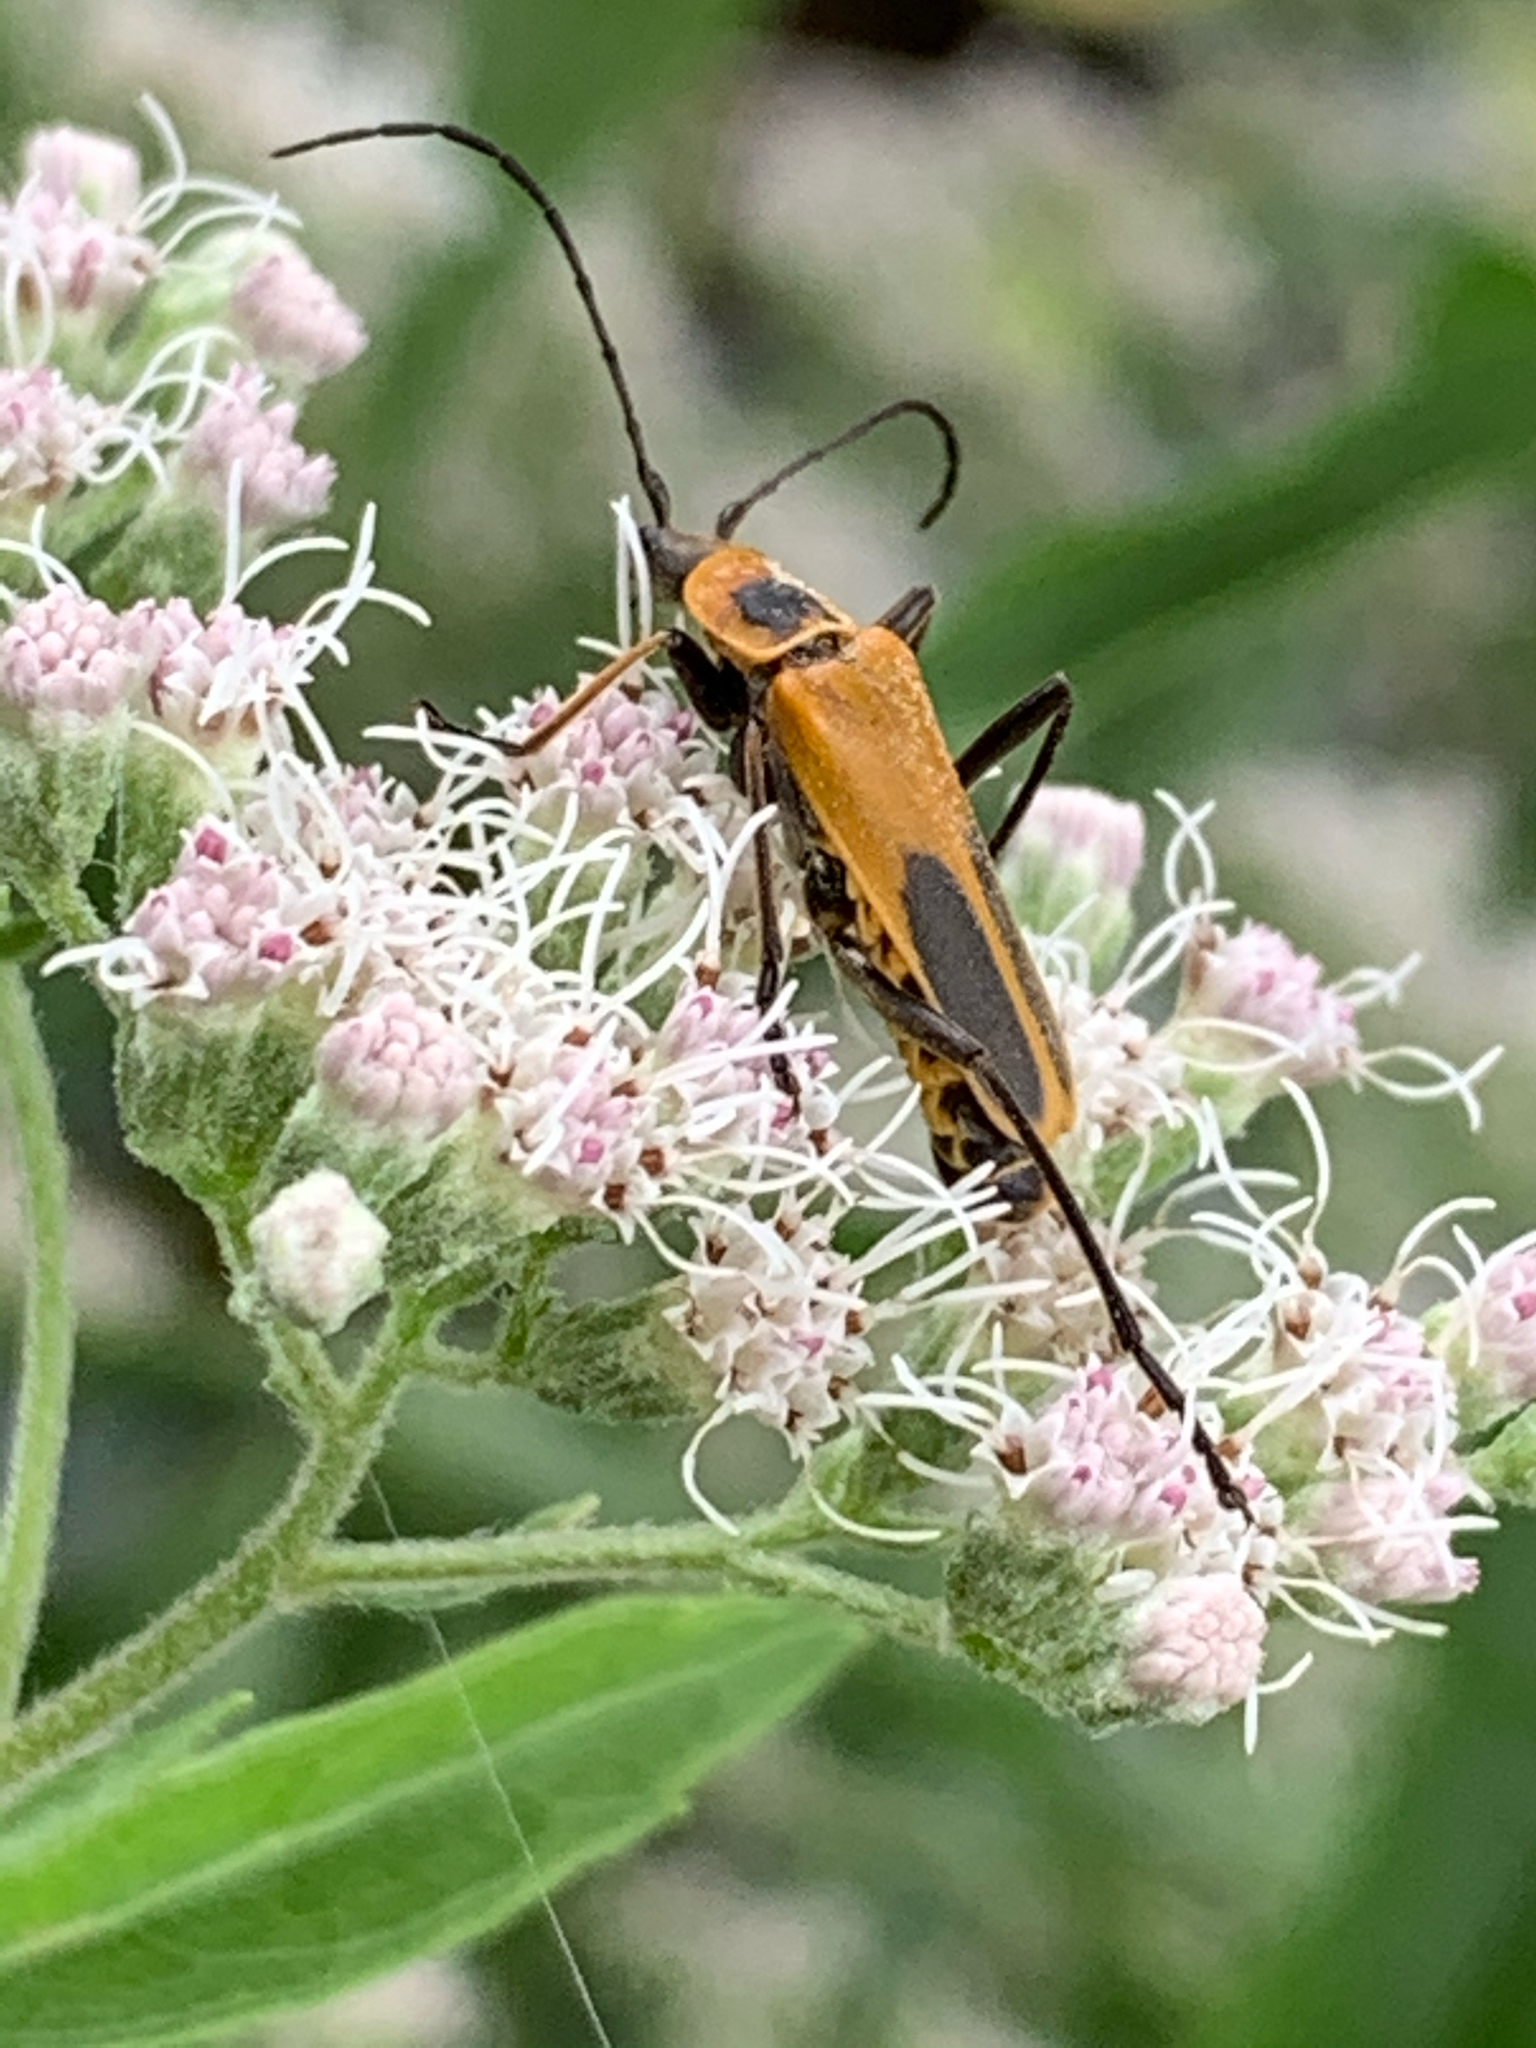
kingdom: Animalia
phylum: Arthropoda
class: Insecta
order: Coleoptera
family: Cantharidae
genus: Chauliognathus
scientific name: Chauliognathus pensylvanicus
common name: Goldenrod soldier beetle
